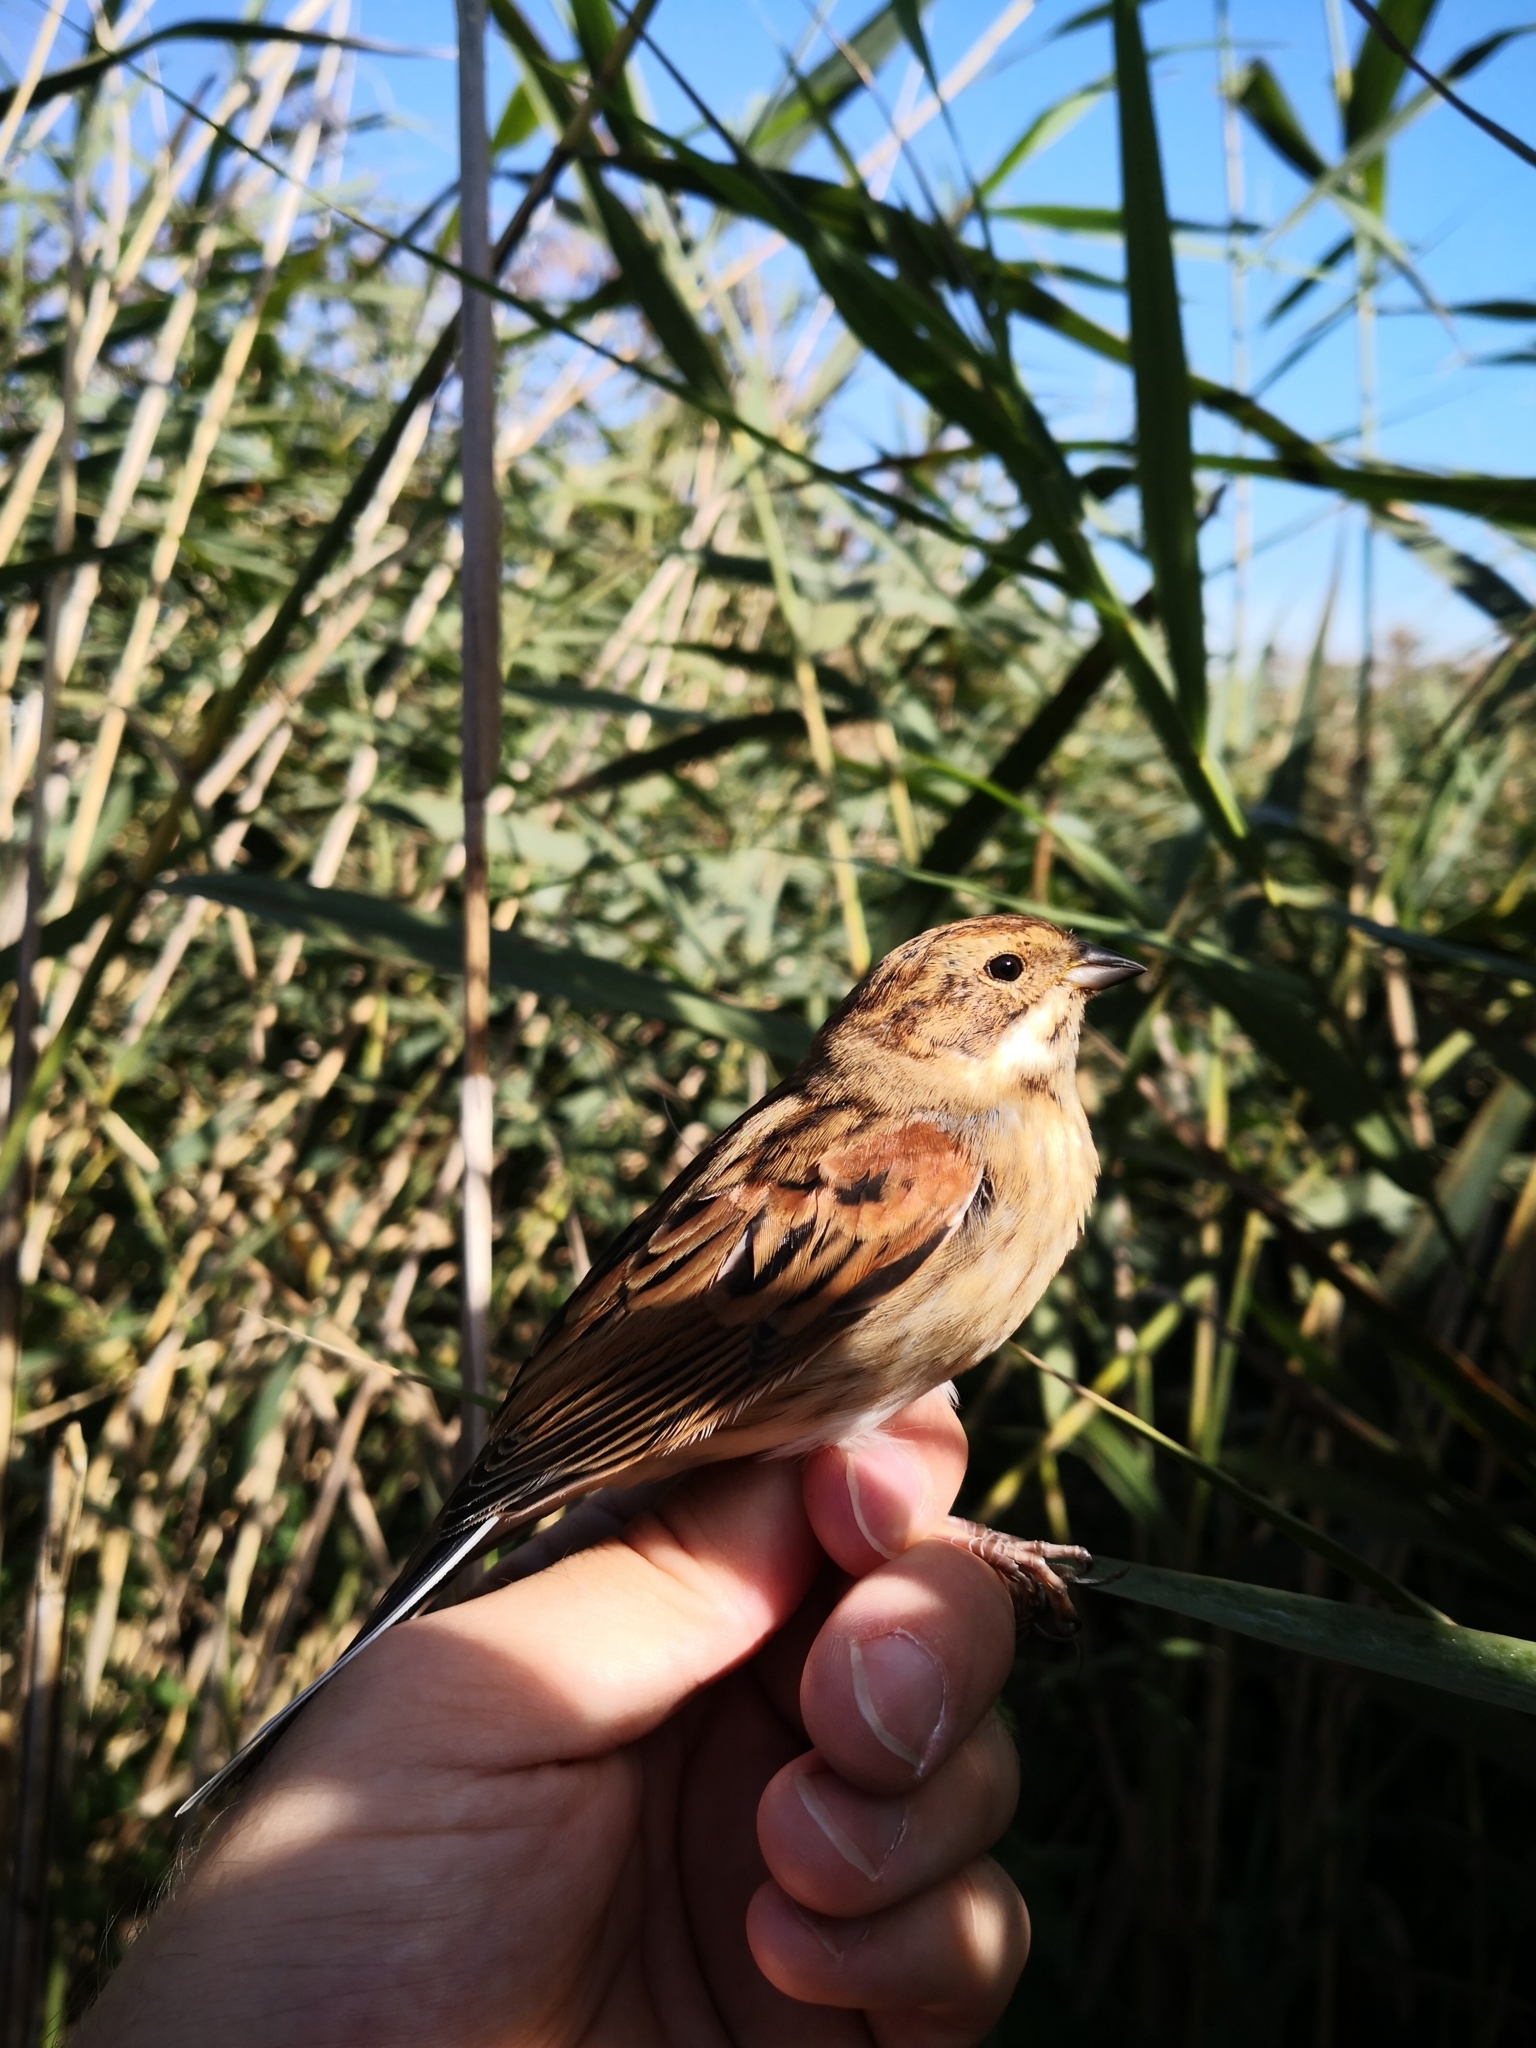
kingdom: Animalia
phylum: Chordata
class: Aves
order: Passeriformes
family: Emberizidae
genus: Emberiza
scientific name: Emberiza schoeniclus
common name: Reed bunting
